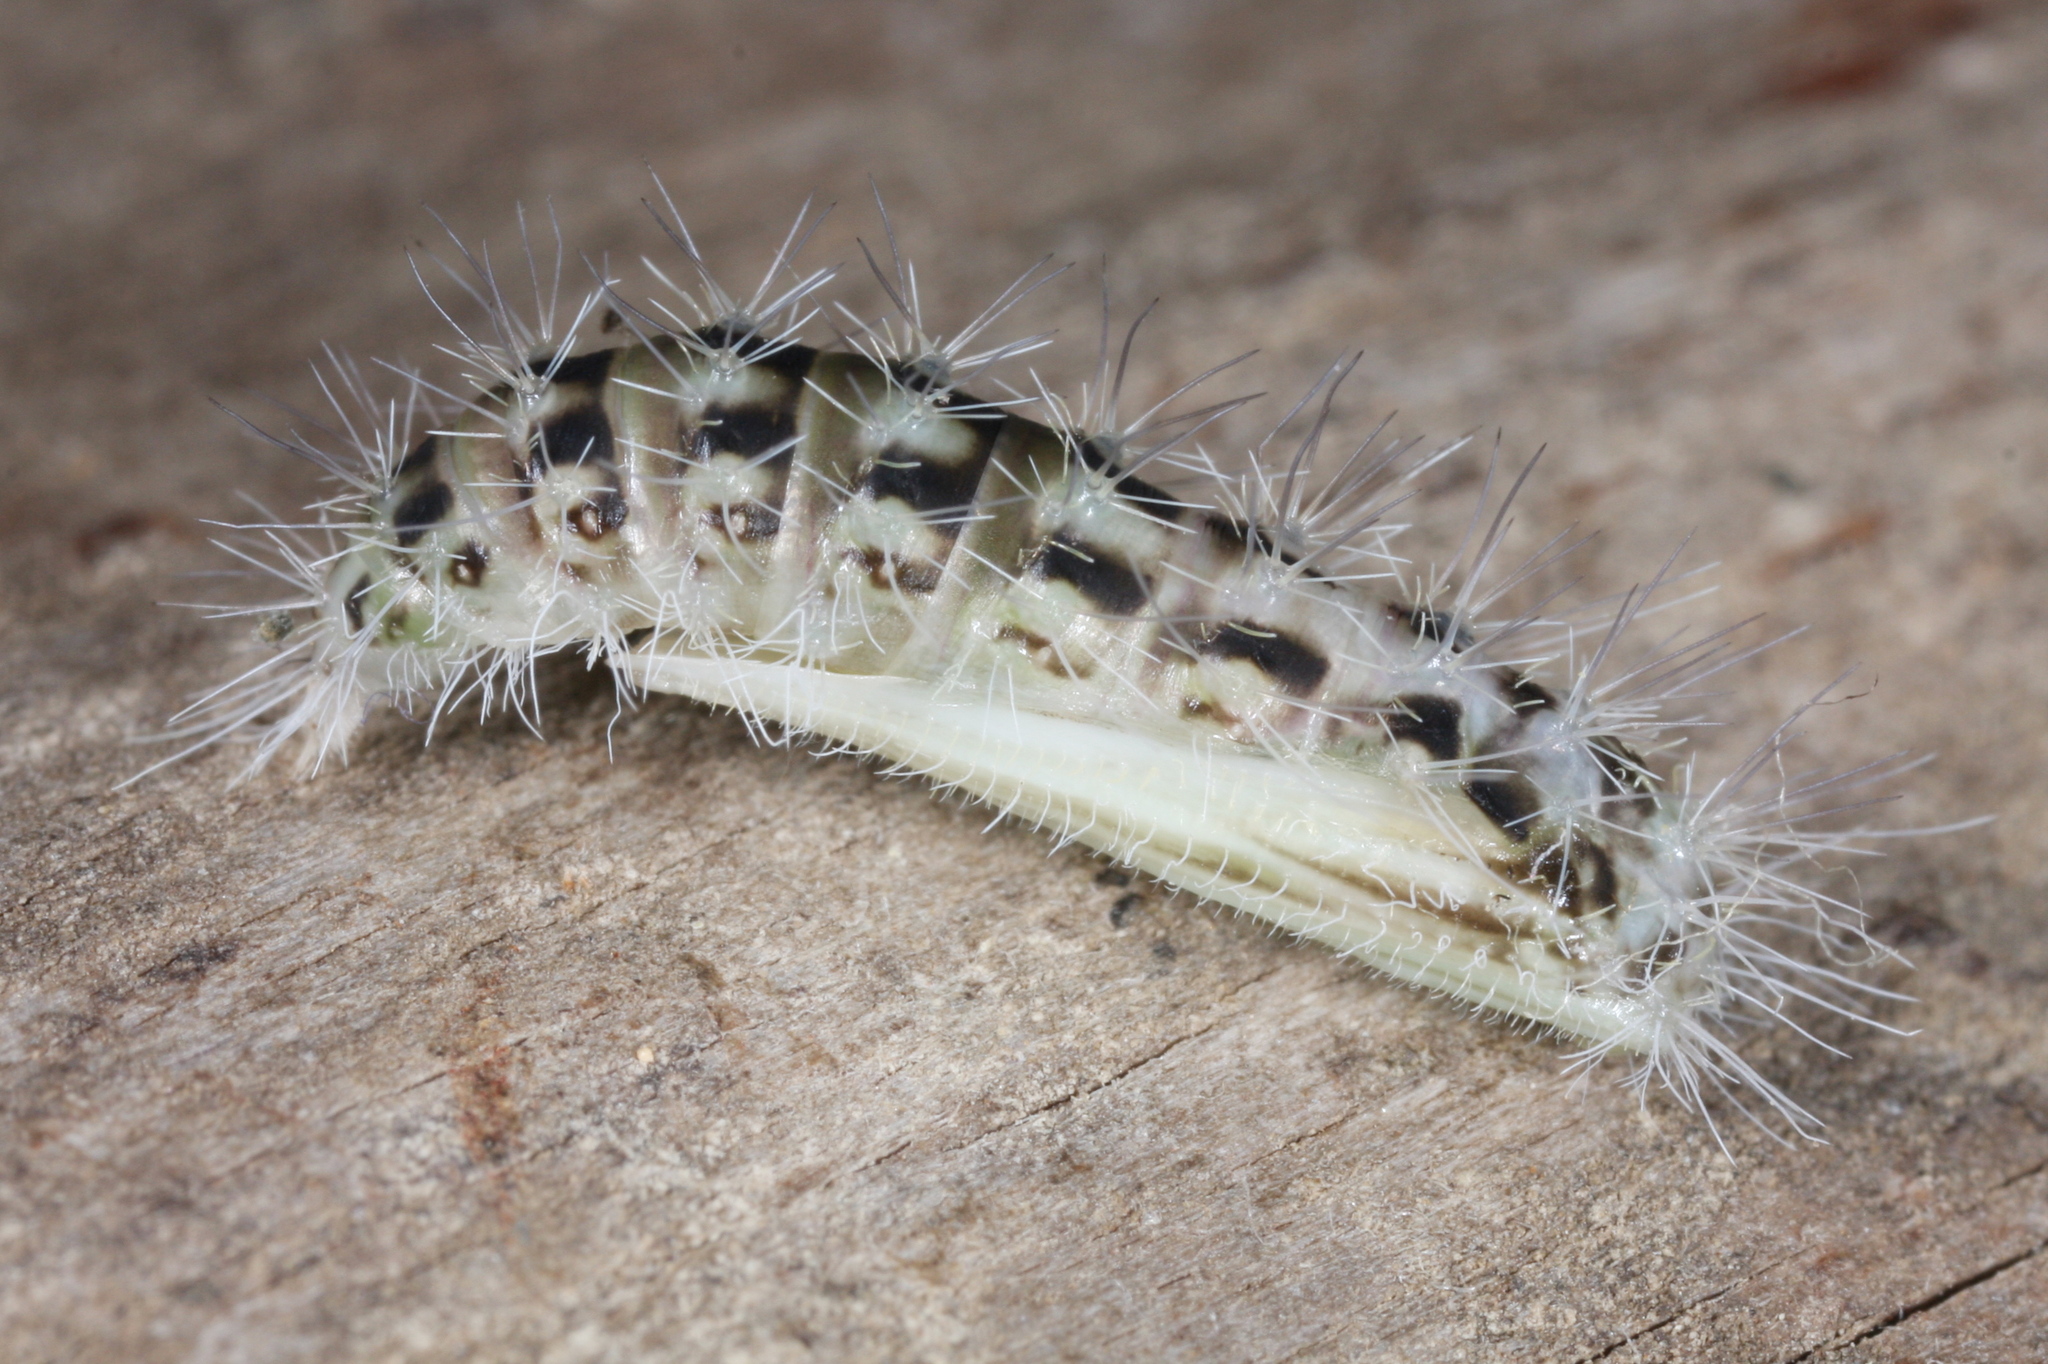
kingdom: Animalia
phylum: Arthropoda
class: Insecta
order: Lepidoptera
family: Pterophoridae
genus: Pterophorus
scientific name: Pterophorus pentadactyla
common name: White plume moth
